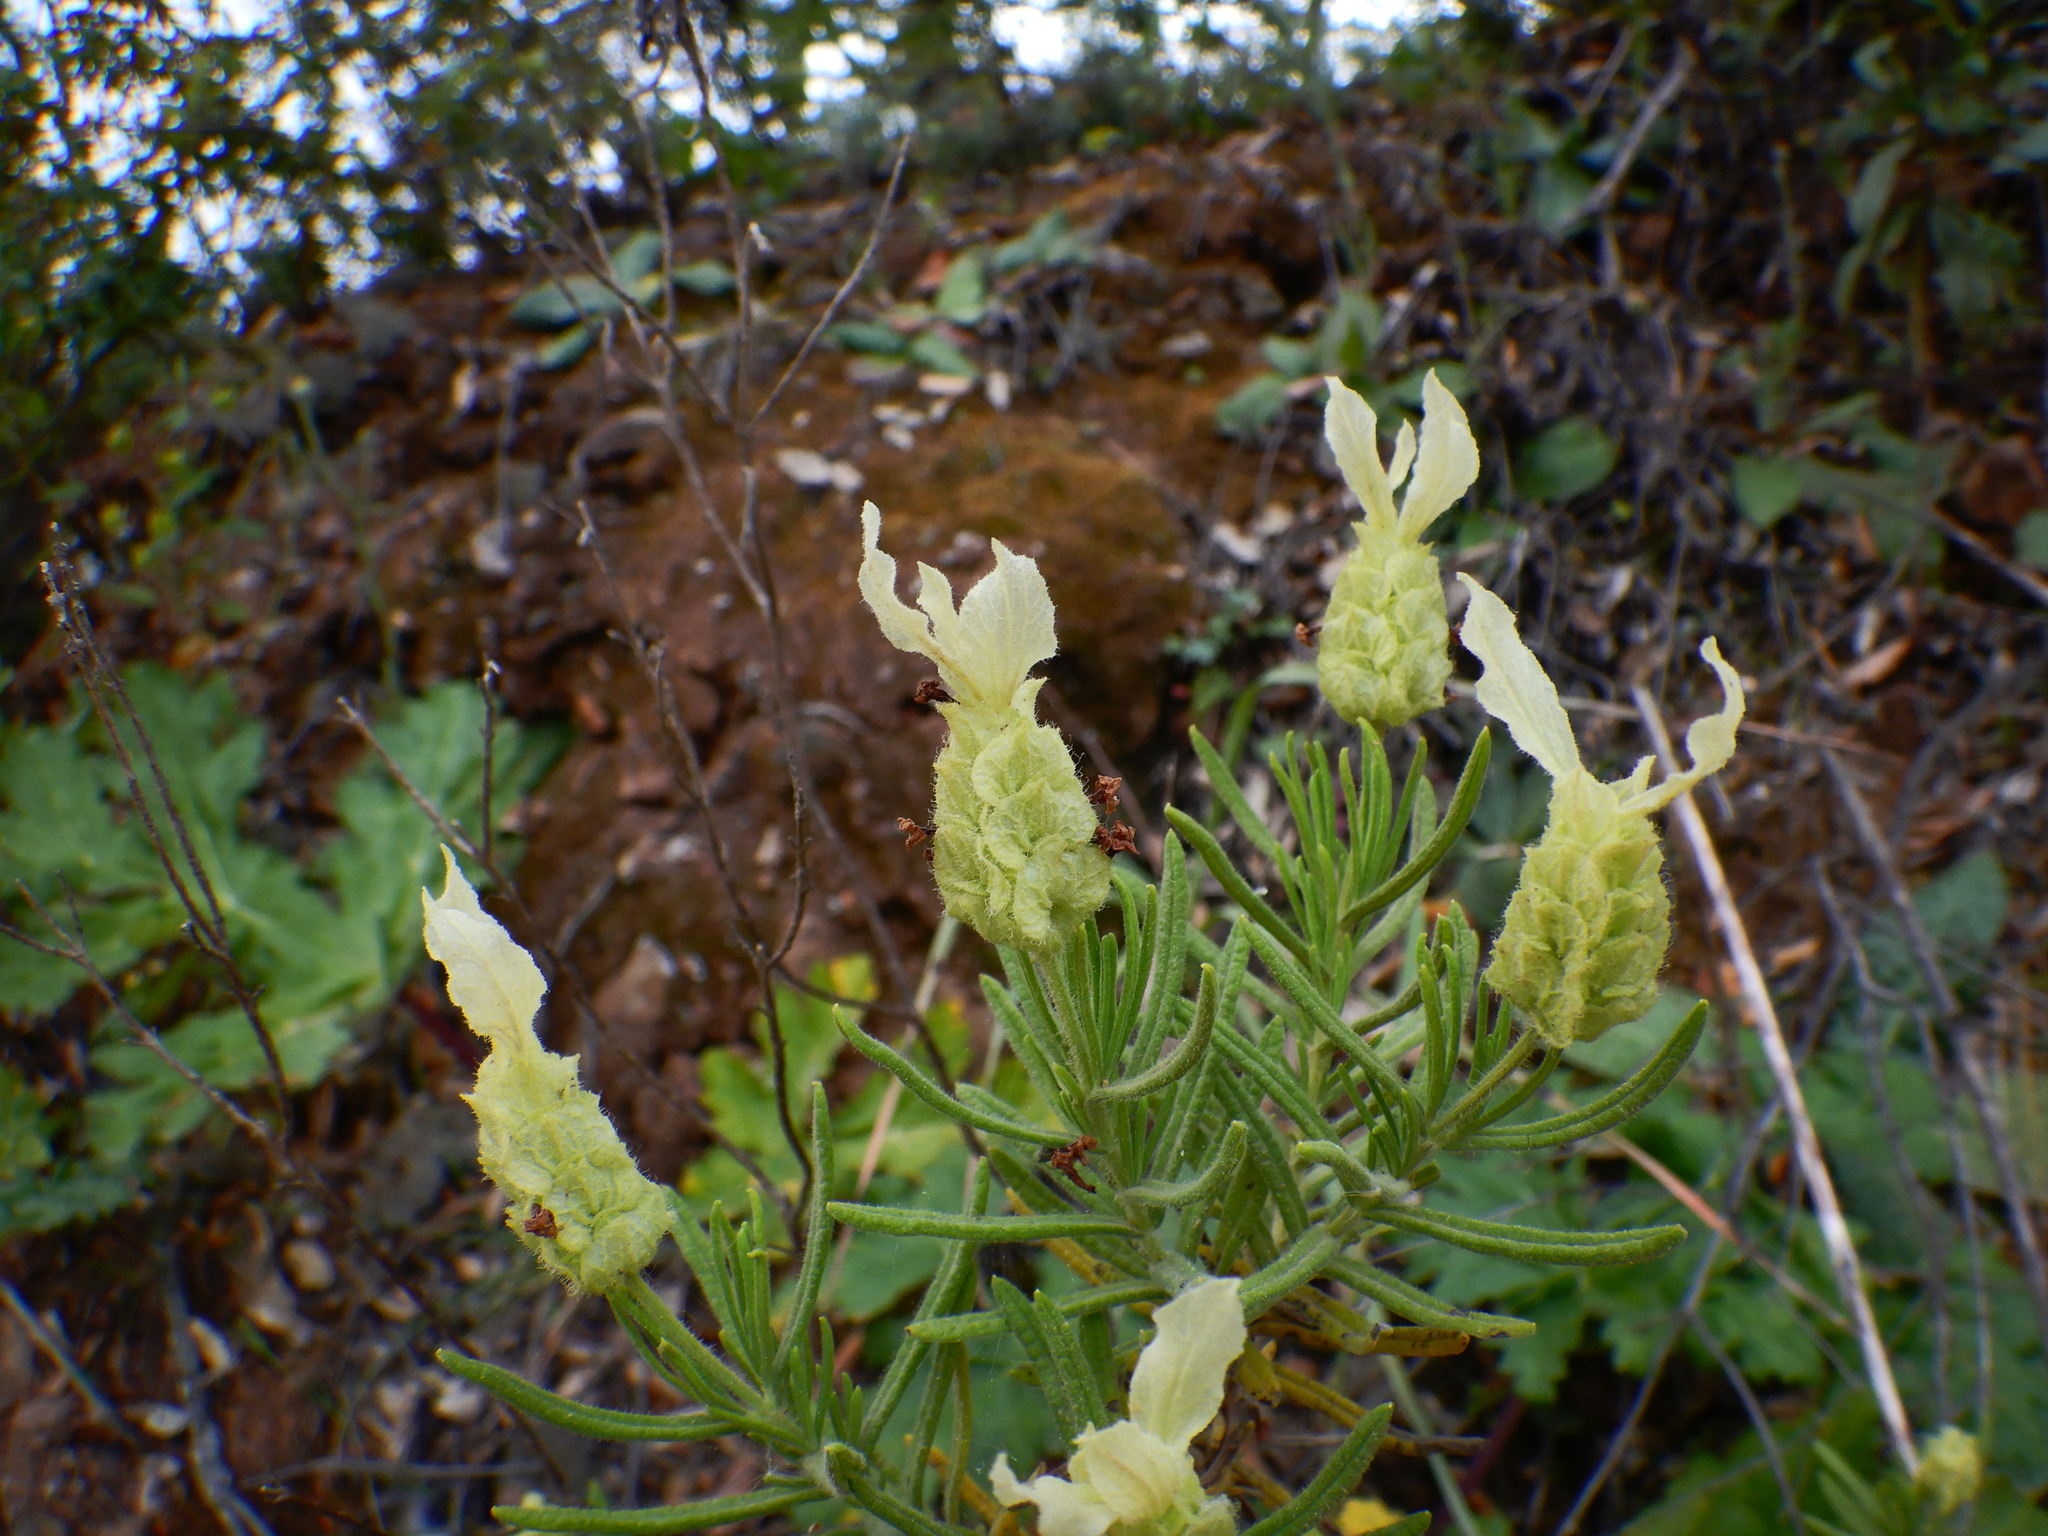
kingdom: Plantae
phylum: Tracheophyta
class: Magnoliopsida
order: Lamiales
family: Lamiaceae
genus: Lavandula
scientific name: Lavandula viridis
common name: Green spanish lavender
